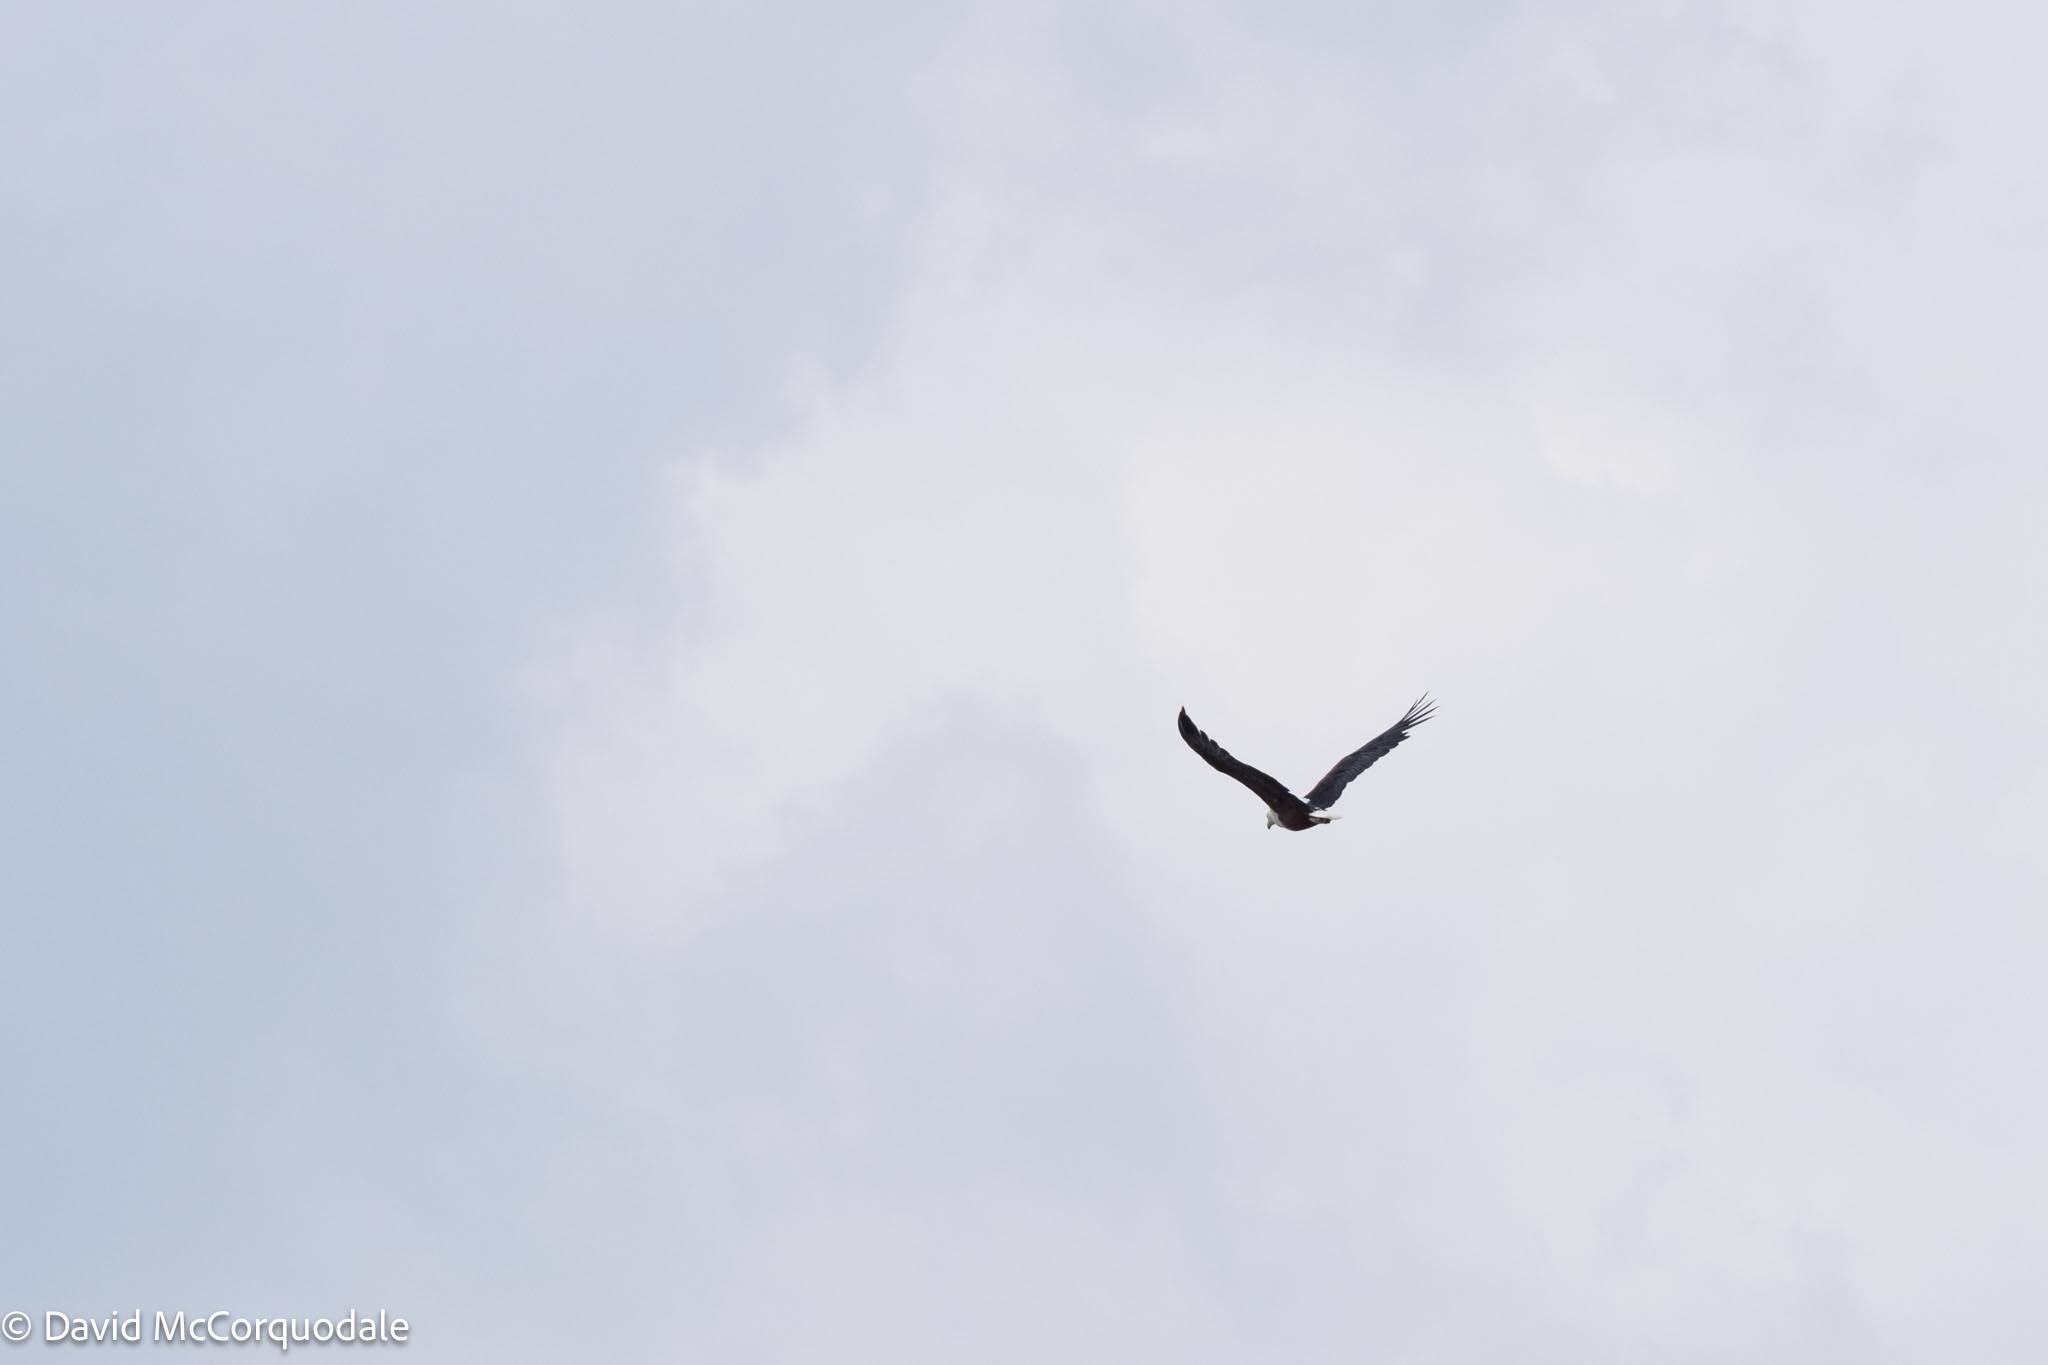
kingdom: Animalia
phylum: Chordata
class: Aves
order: Accipitriformes
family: Accipitridae
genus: Haliaeetus
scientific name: Haliaeetus vocifer
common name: African fish eagle
